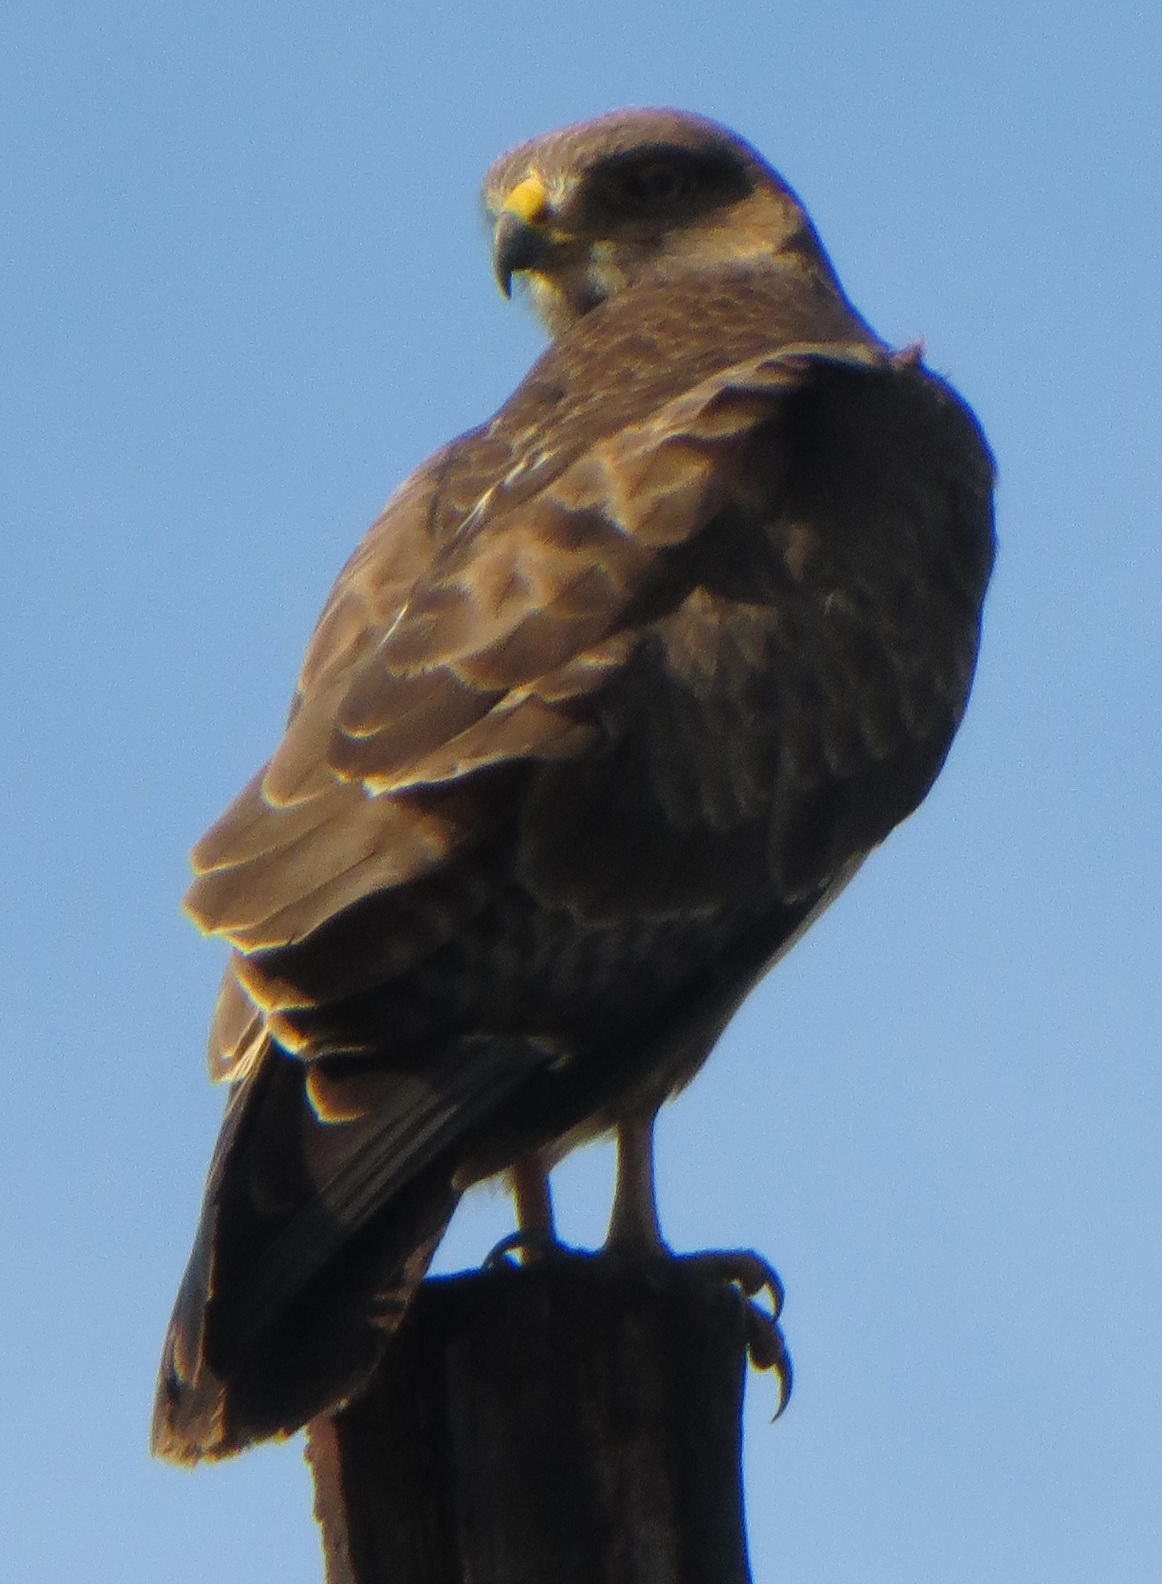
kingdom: Animalia
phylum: Chordata
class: Aves
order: Accipitriformes
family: Accipitridae
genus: Buteo
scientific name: Buteo buteo
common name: Common buzzard
